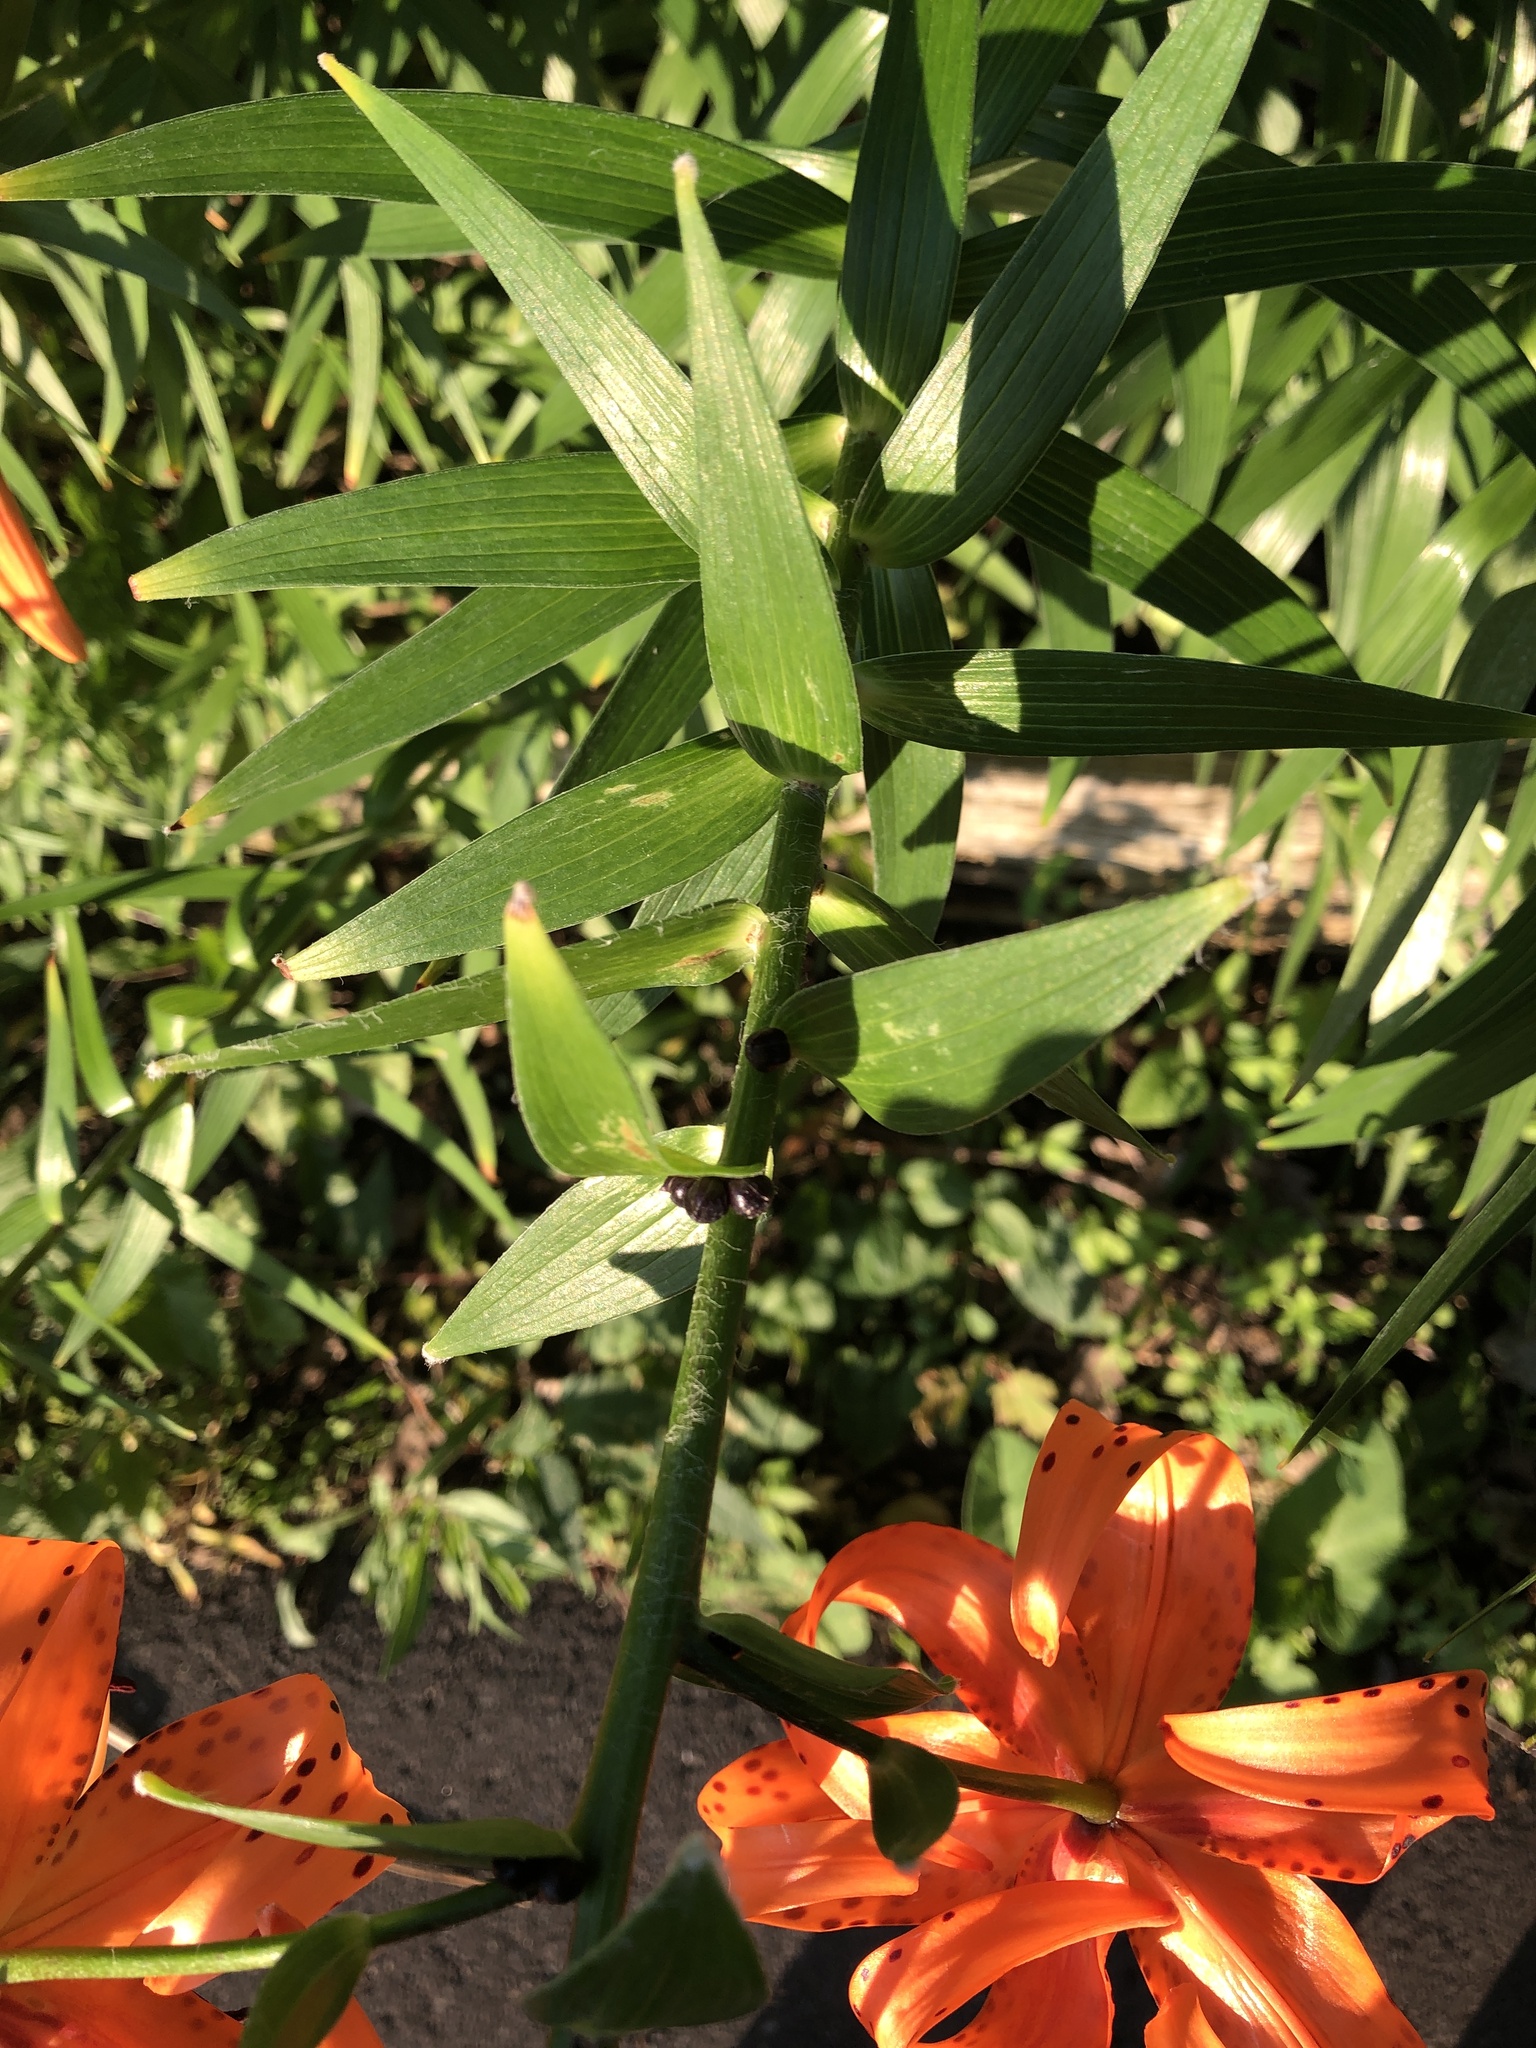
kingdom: Plantae
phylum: Tracheophyta
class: Liliopsida
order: Liliales
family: Liliaceae
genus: Lilium
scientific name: Lilium lancifolium
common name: Tiger lily
